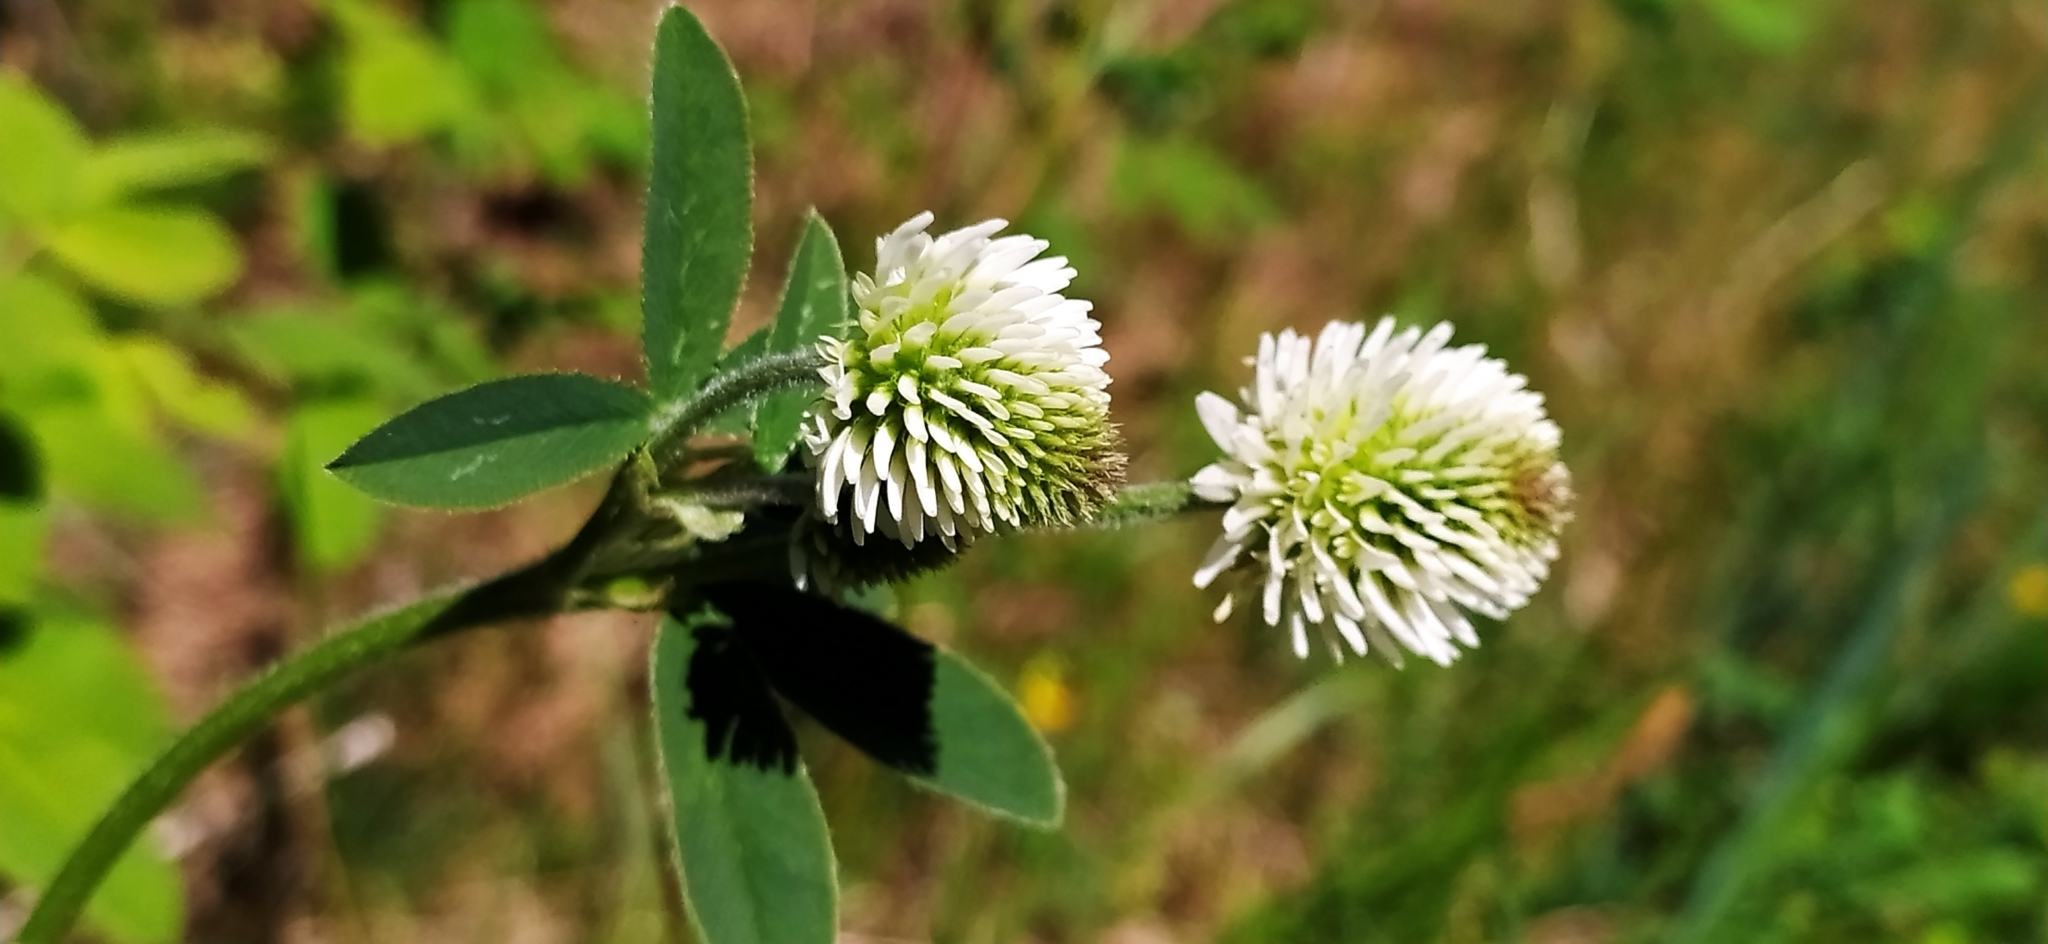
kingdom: Plantae
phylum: Tracheophyta
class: Magnoliopsida
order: Fabales
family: Fabaceae
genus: Trifolium
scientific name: Trifolium montanum
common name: Mountain clover
